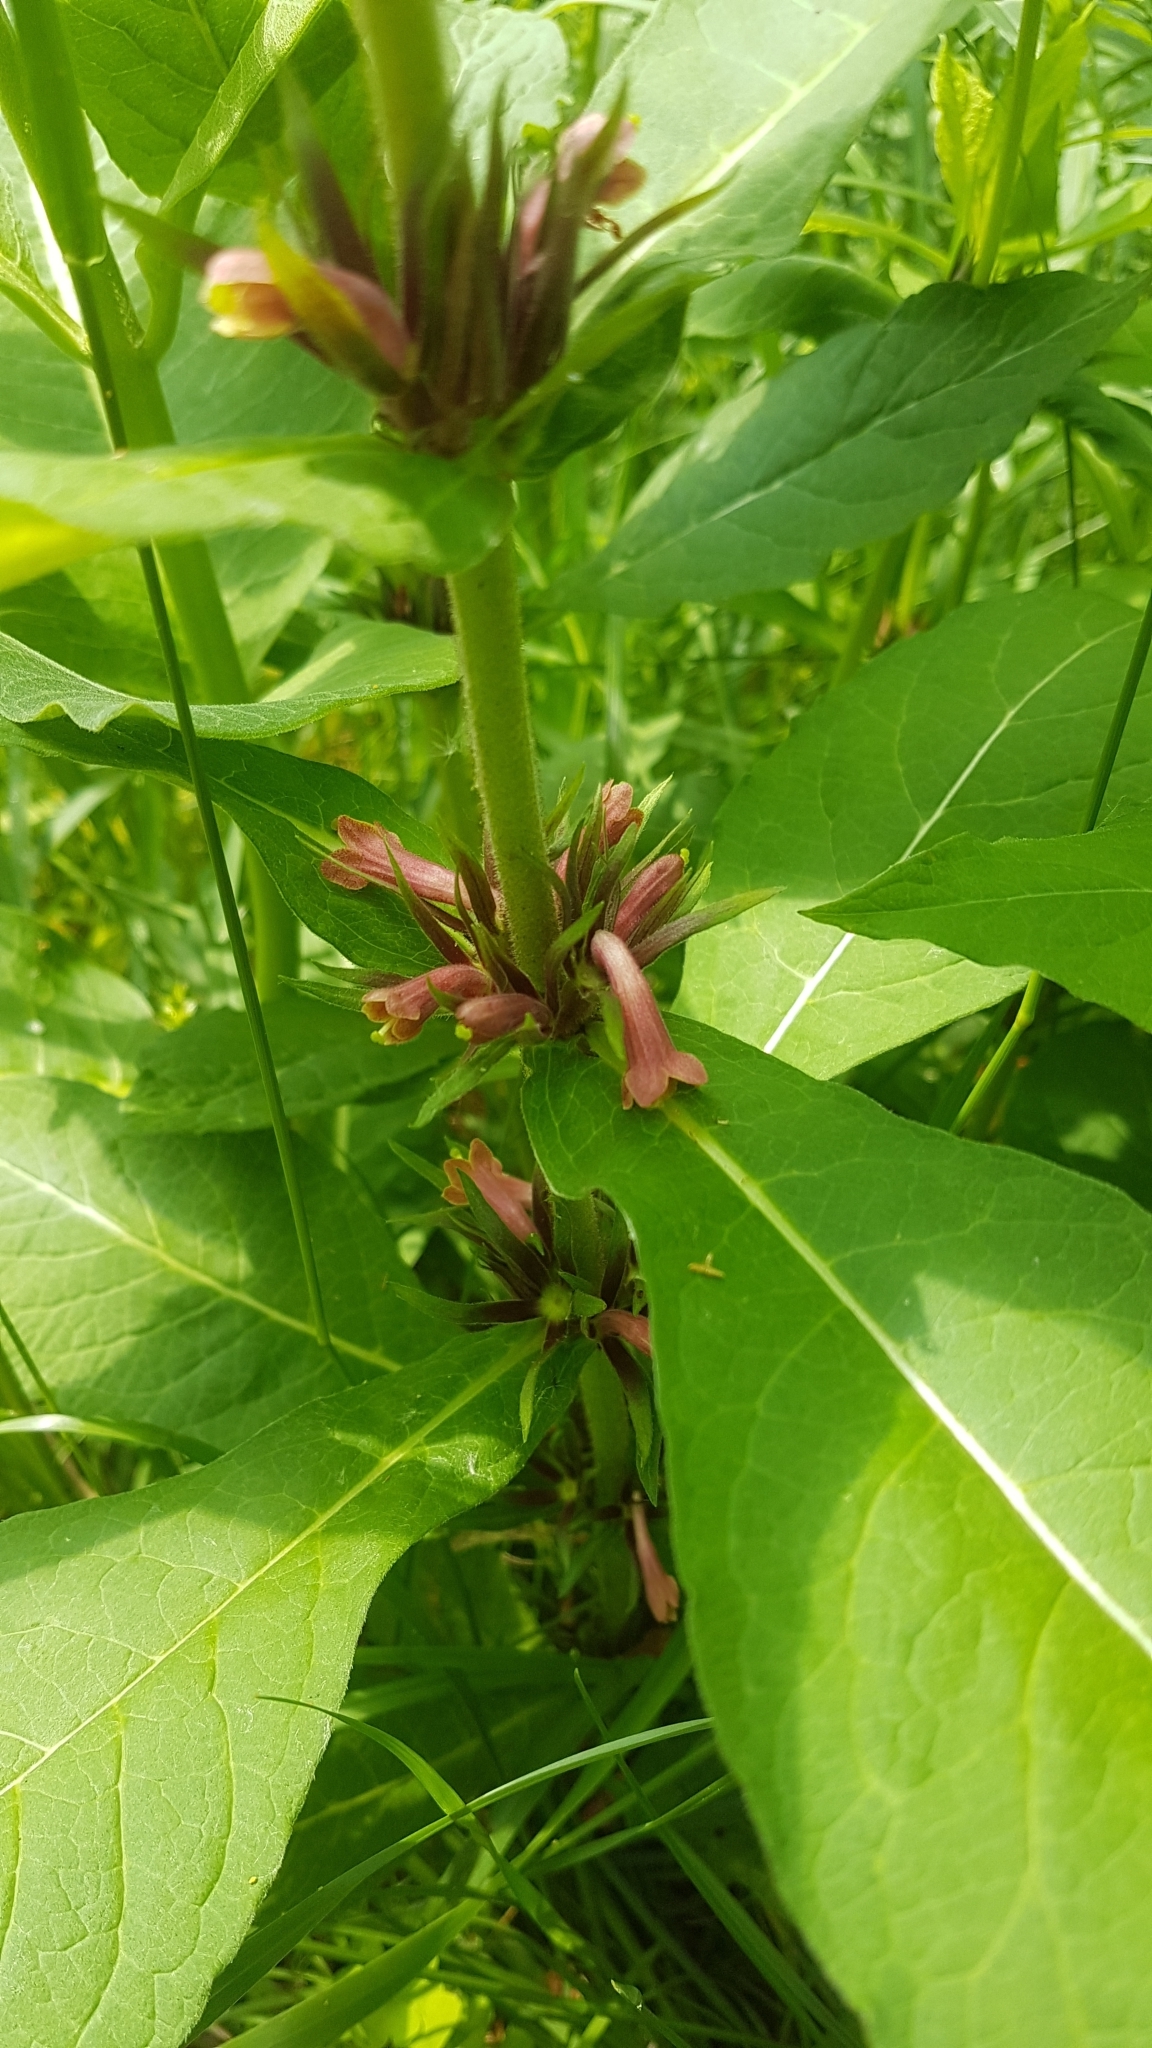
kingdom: Plantae
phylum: Tracheophyta
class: Magnoliopsida
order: Dipsacales
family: Caprifoliaceae
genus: Triosteum
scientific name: Triosteum aurantiacum
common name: Coffee tinker's-weed
